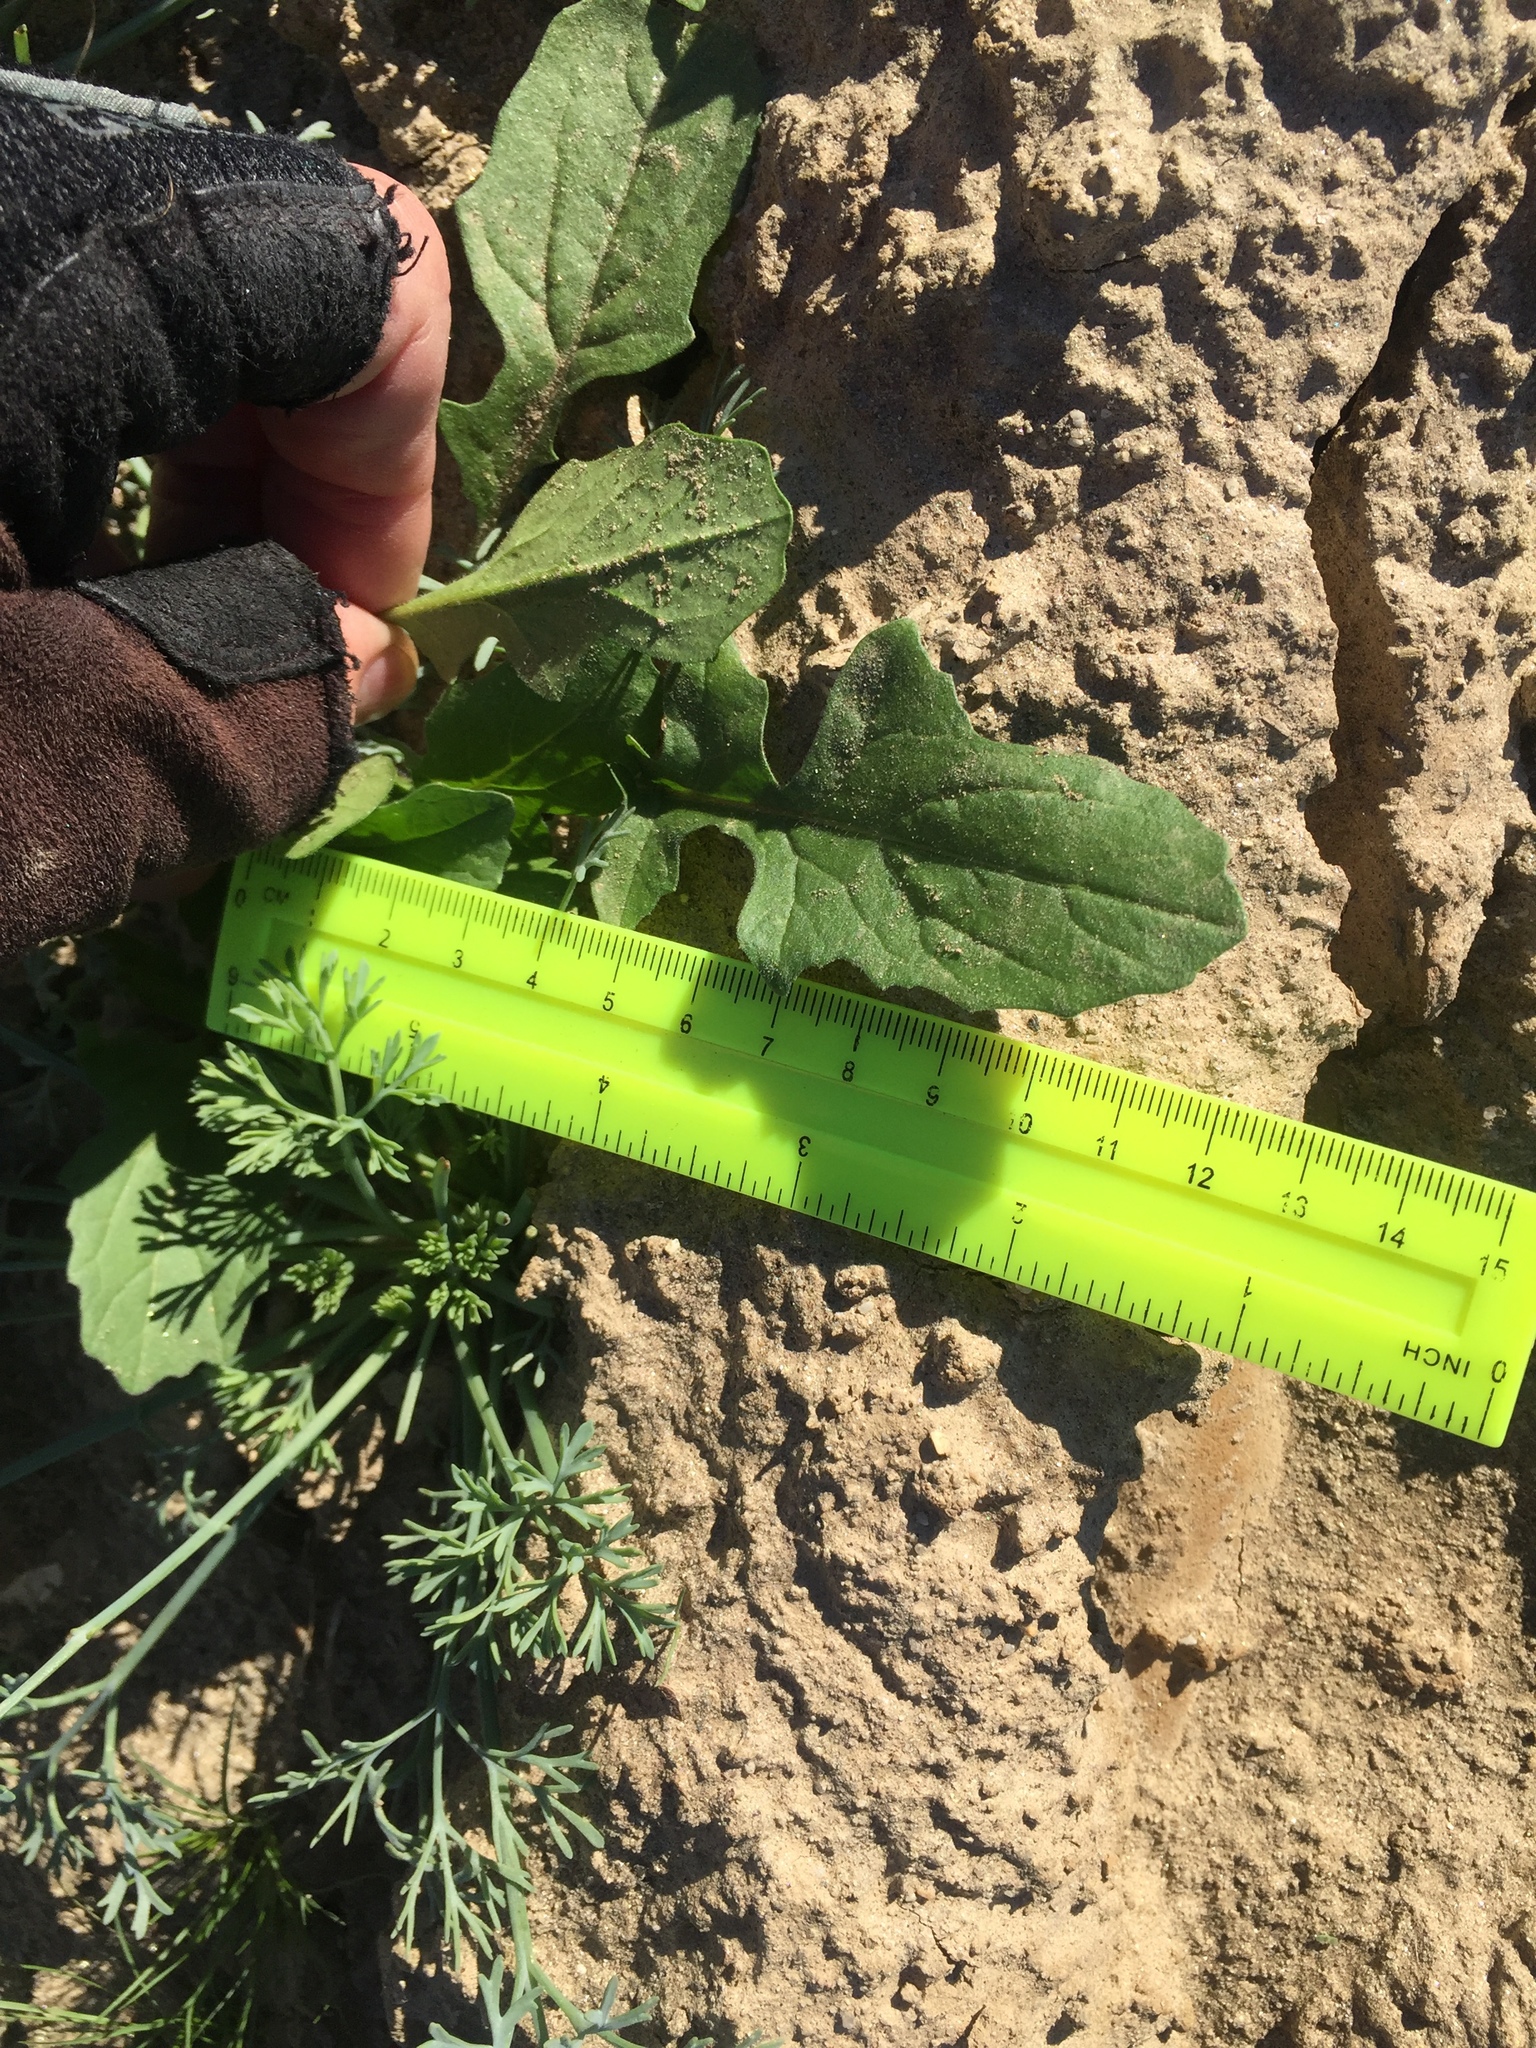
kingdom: Plantae
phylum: Tracheophyta
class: Magnoliopsida
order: Brassicales
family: Brassicaceae
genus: Sisymbrium
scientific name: Sisymbrium irio
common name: London rocket
